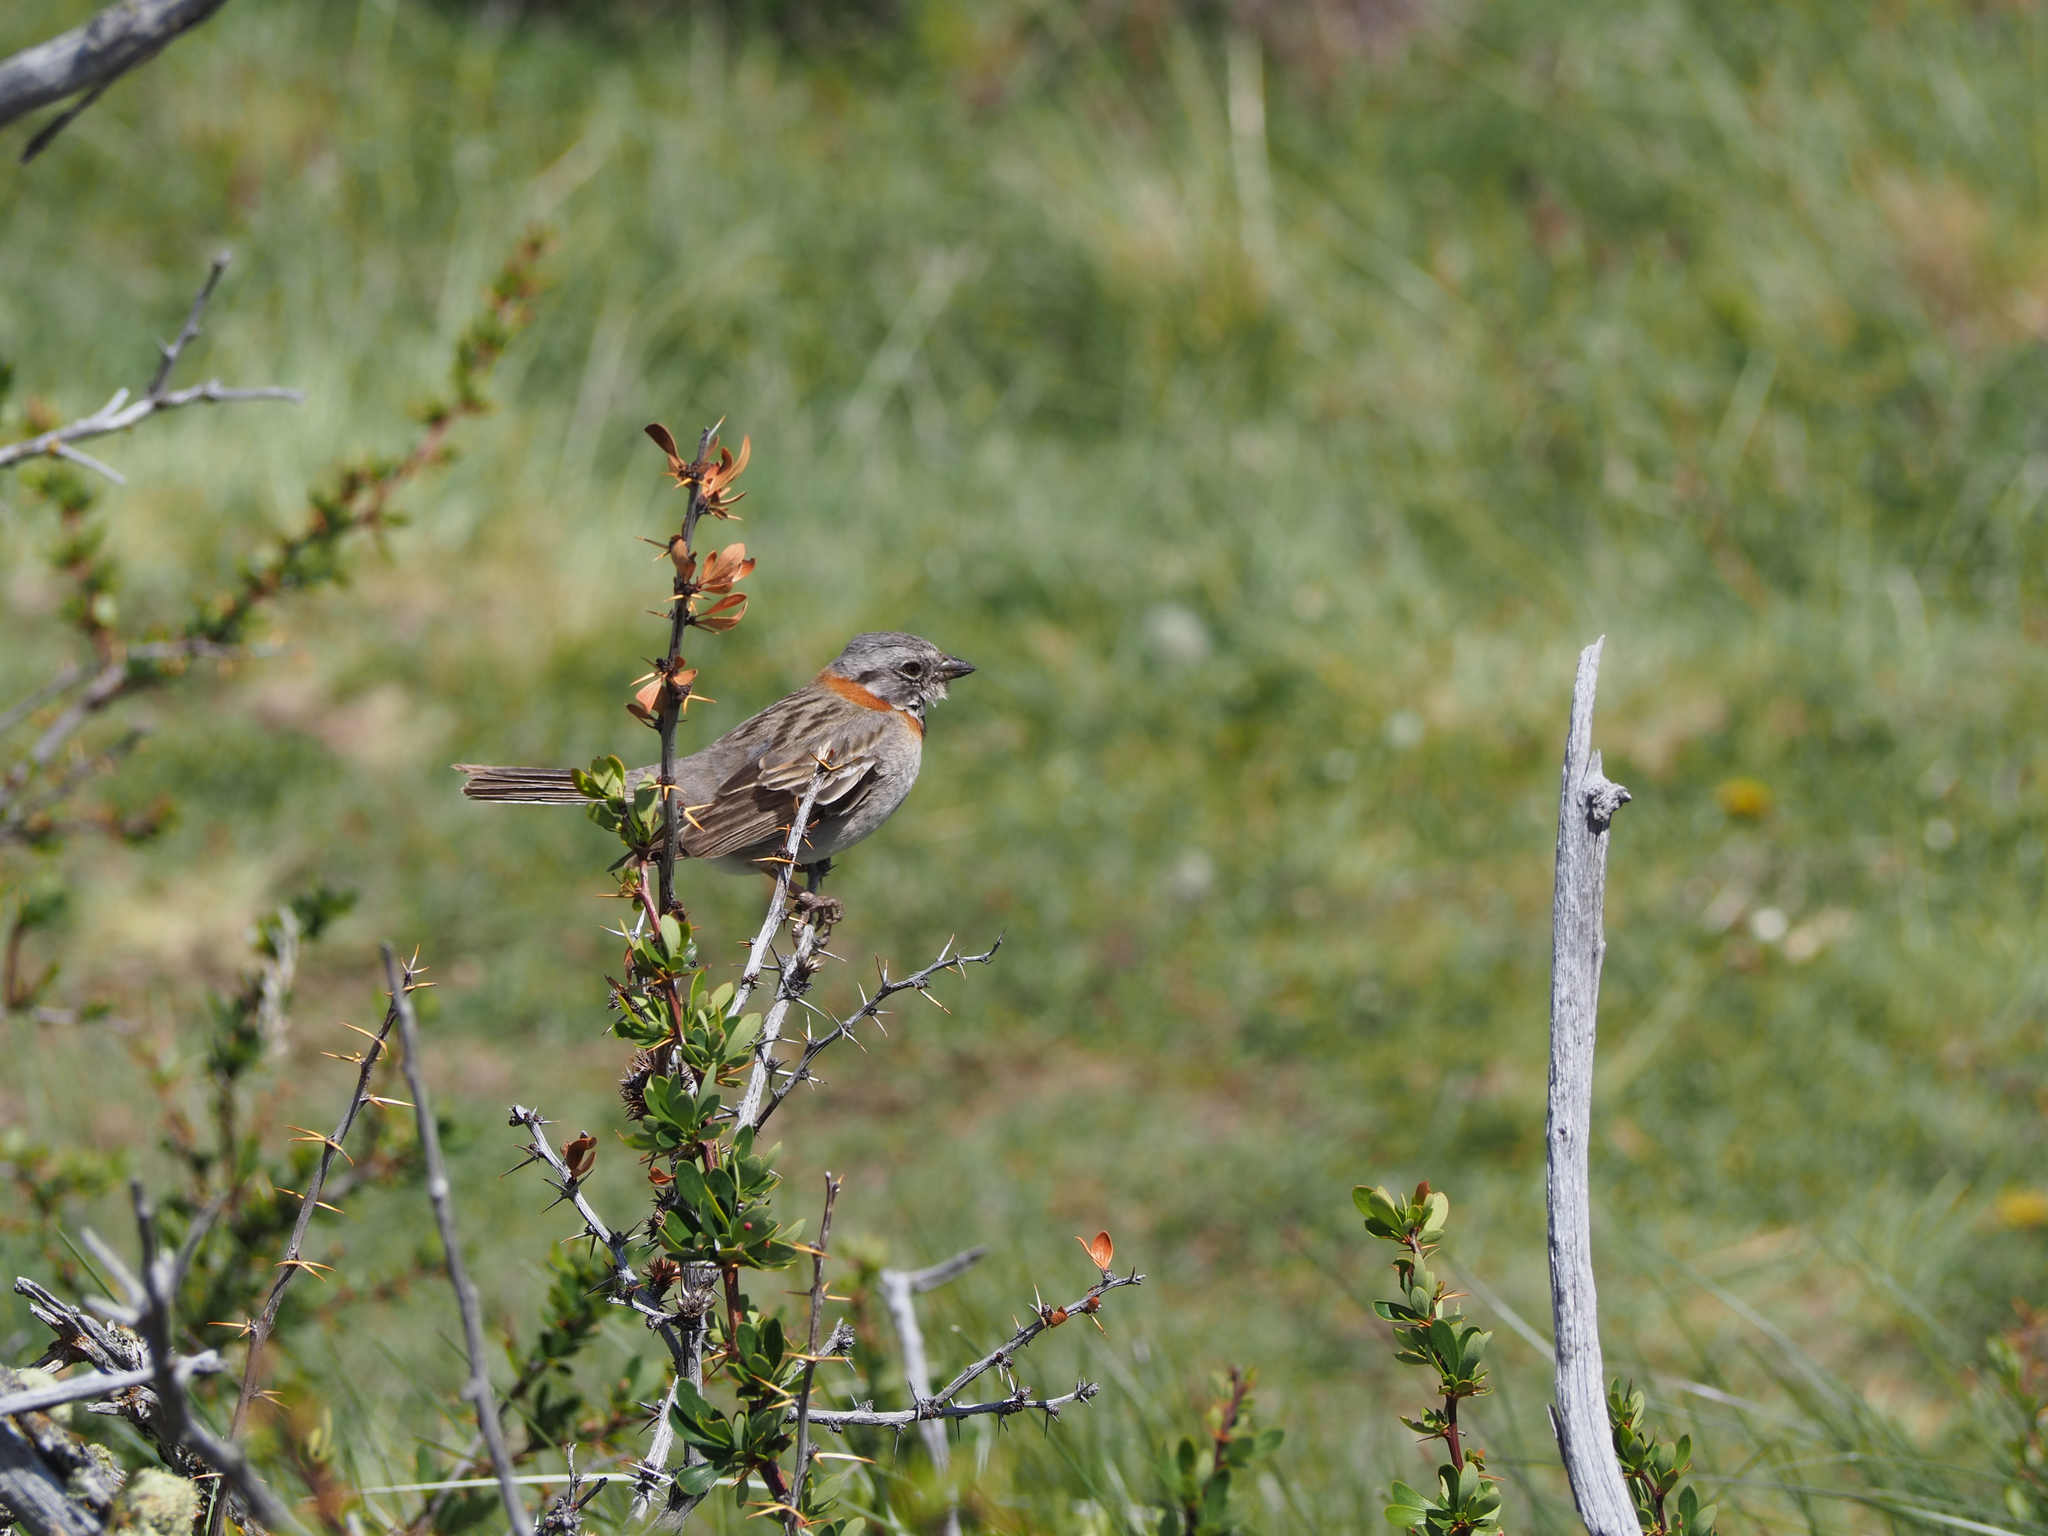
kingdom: Animalia
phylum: Chordata
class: Aves
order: Passeriformes
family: Passerellidae
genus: Zonotrichia
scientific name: Zonotrichia capensis
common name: Rufous-collared sparrow
